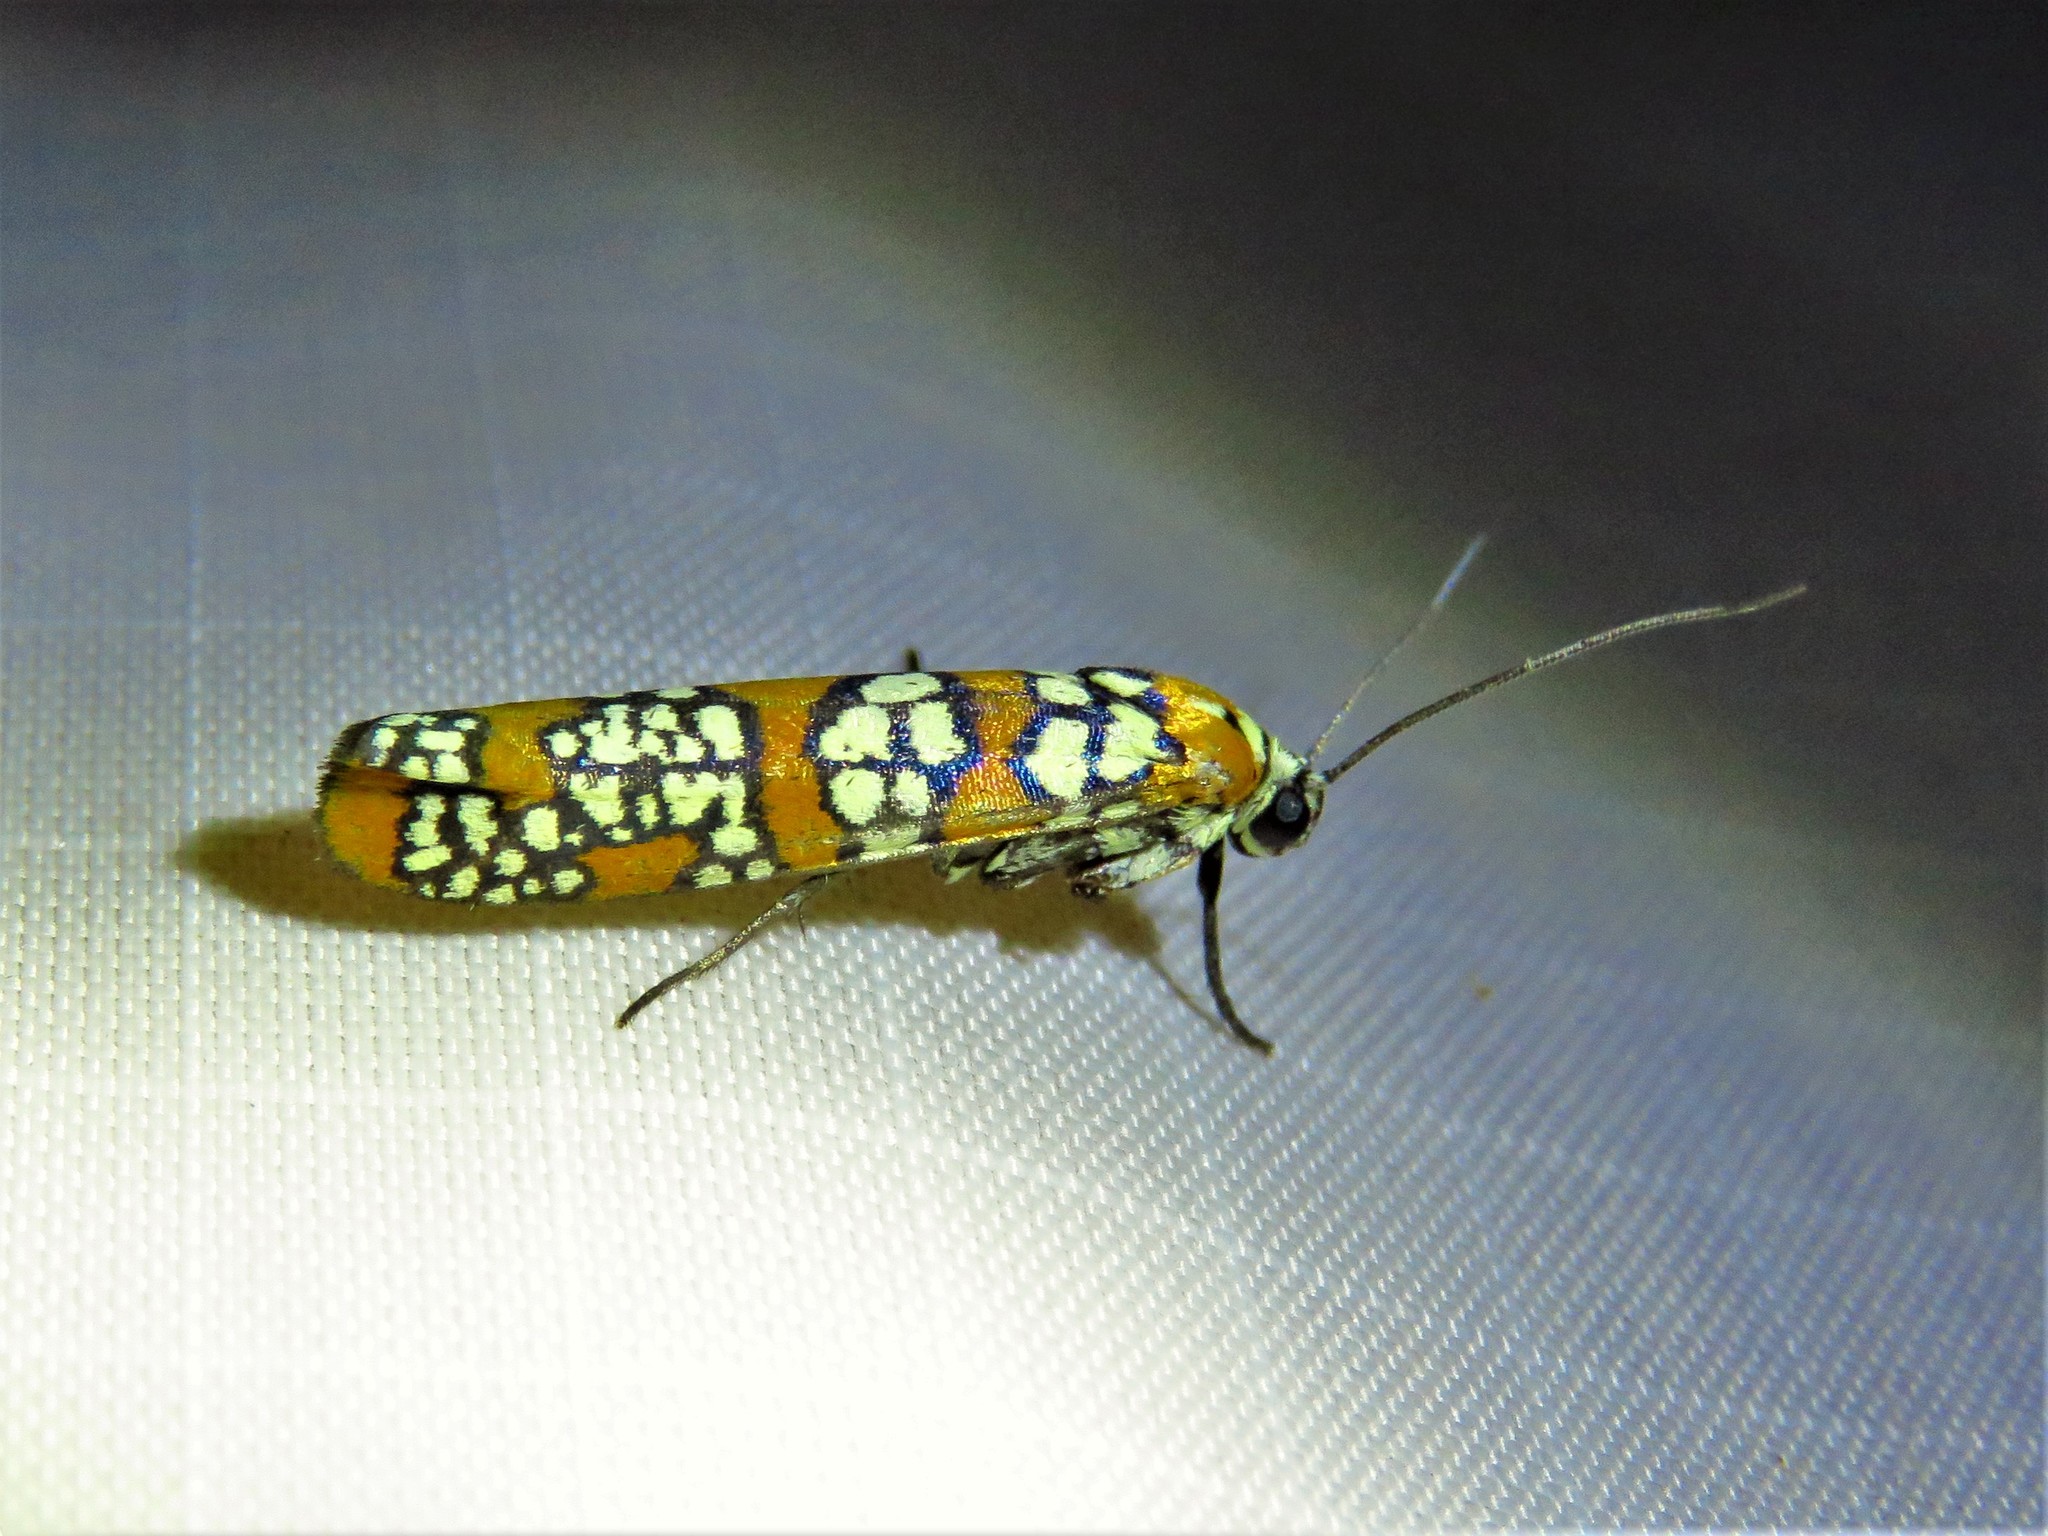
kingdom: Animalia
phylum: Arthropoda
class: Insecta
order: Lepidoptera
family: Attevidae
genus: Atteva
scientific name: Atteva punctella
